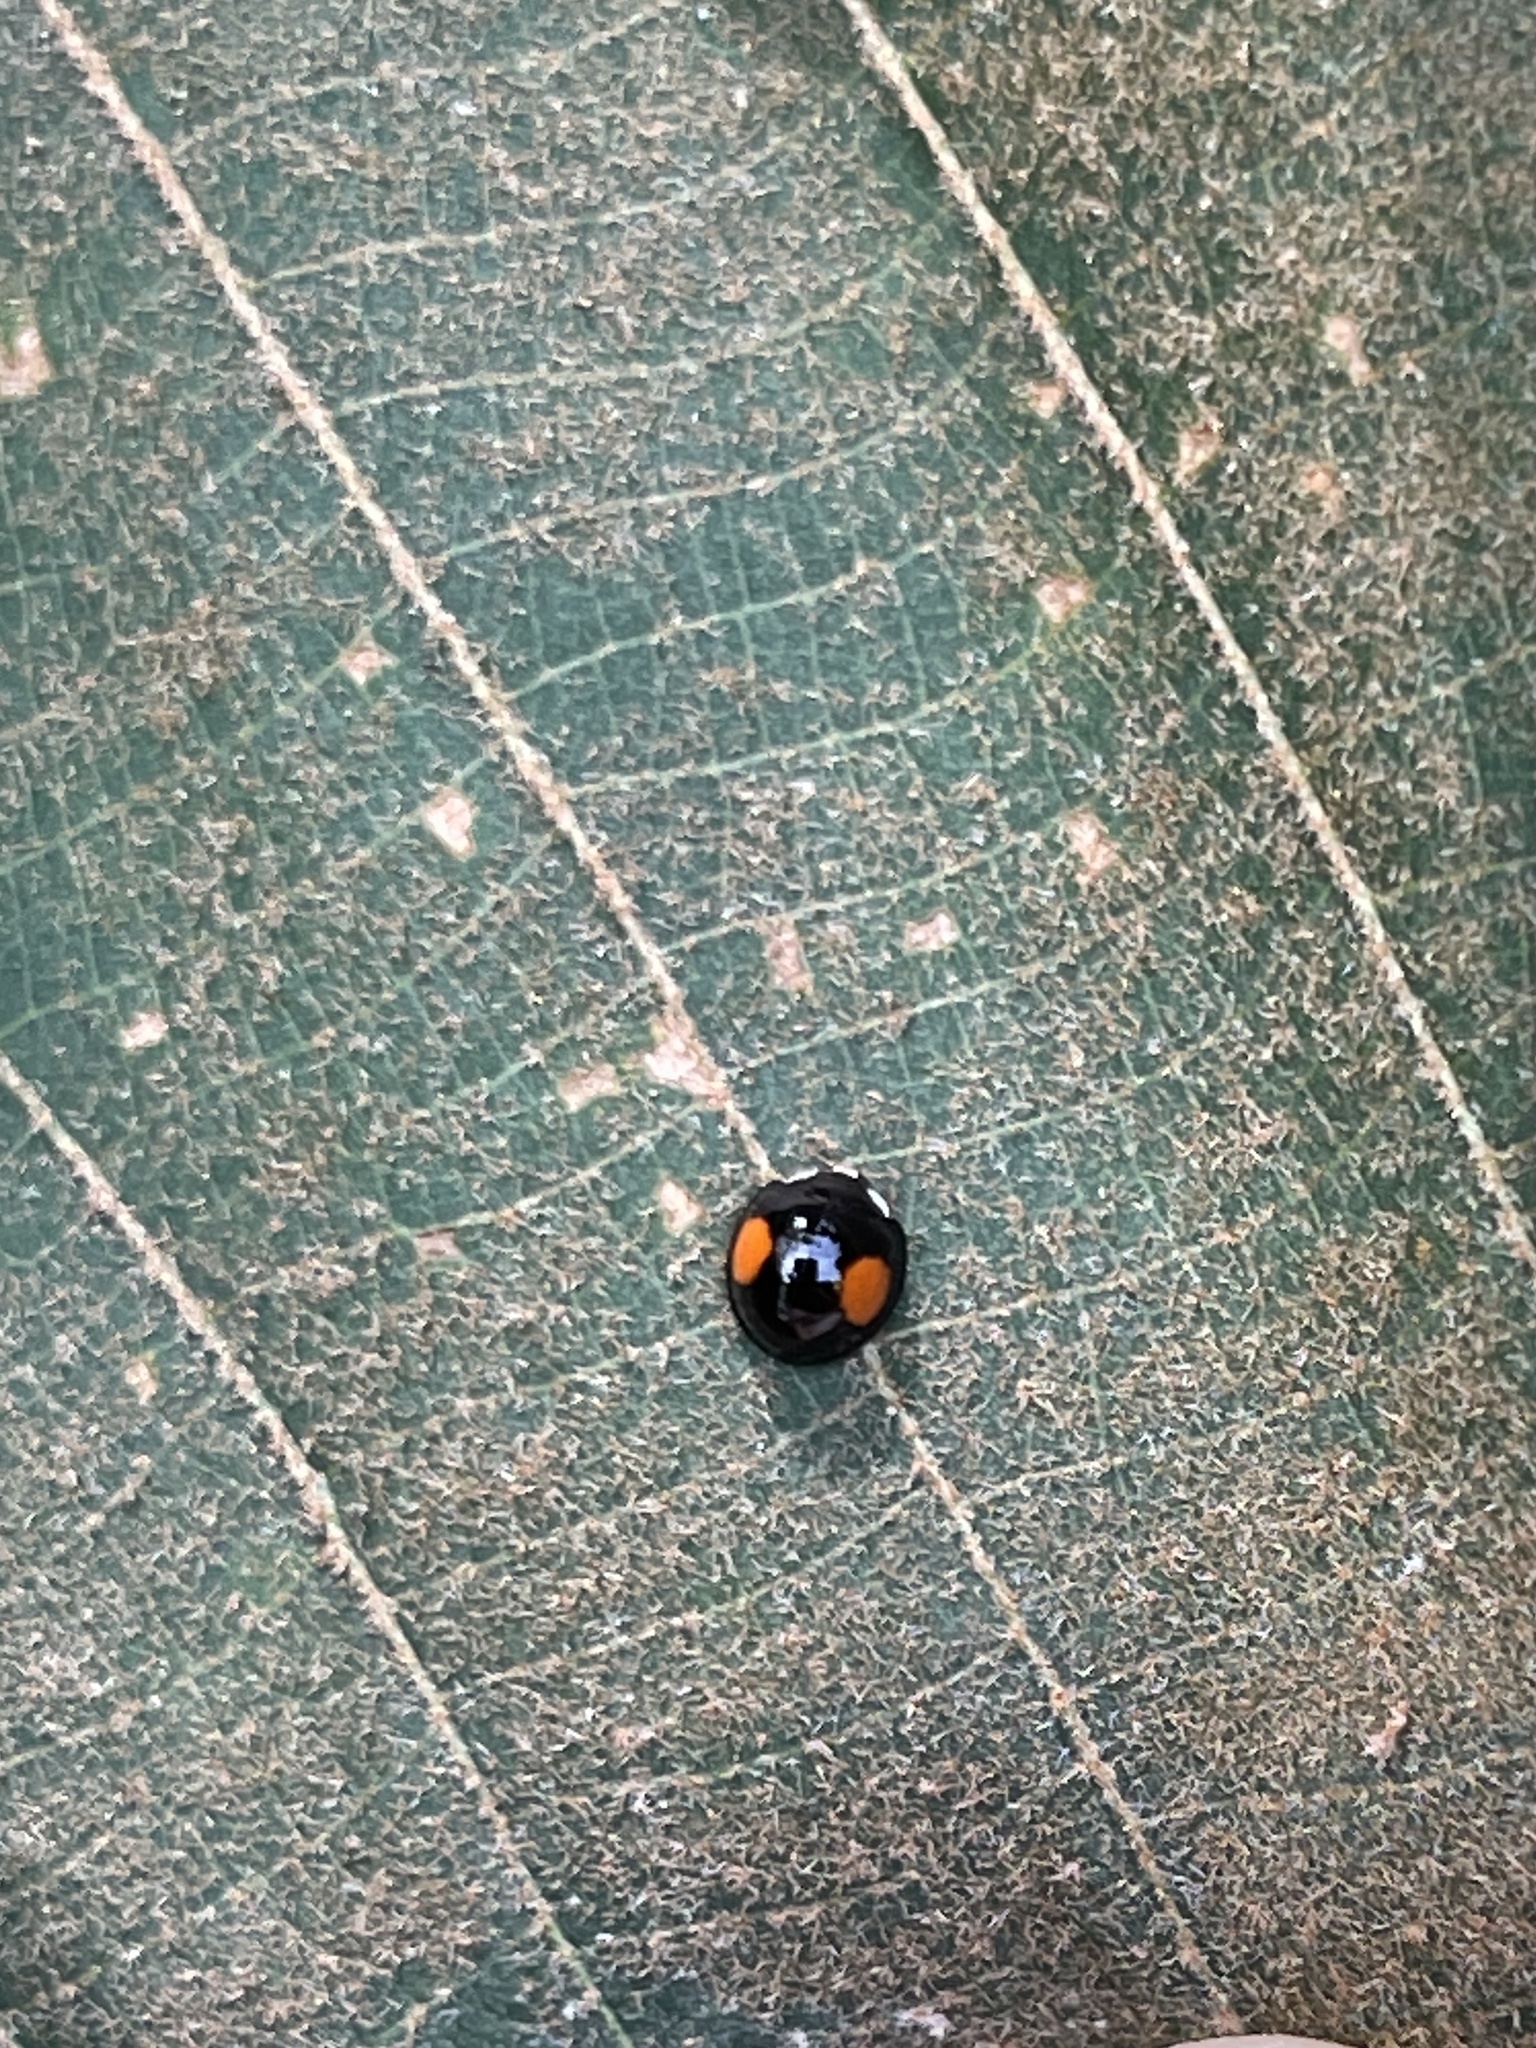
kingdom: Animalia
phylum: Arthropoda
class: Insecta
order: Coleoptera
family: Coccinellidae
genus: Coelophora
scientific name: Coelophora saucia
